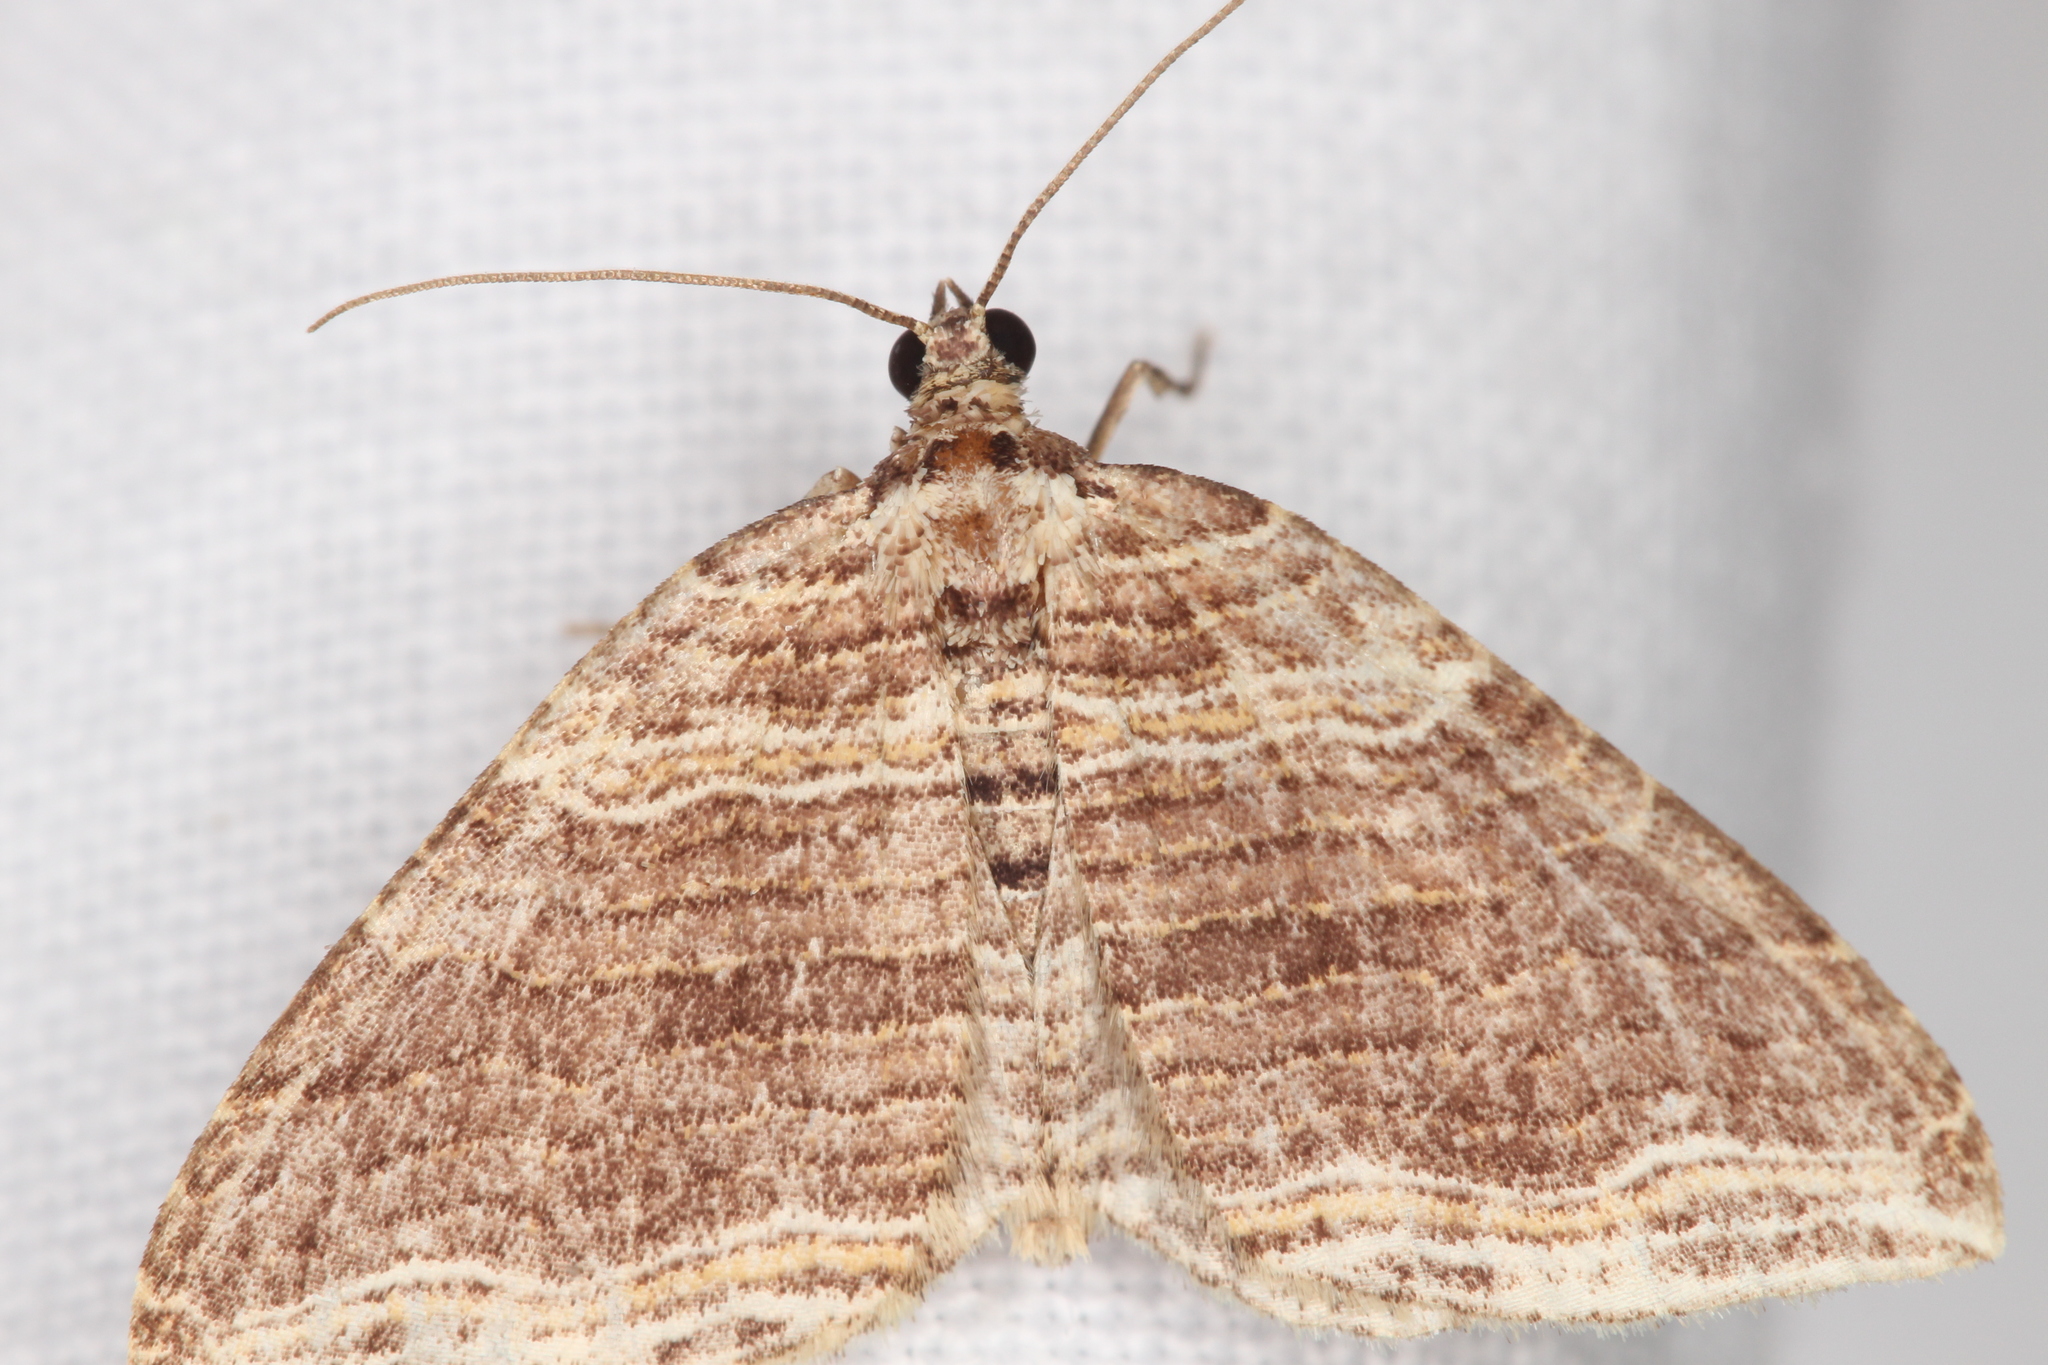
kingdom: Animalia
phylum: Arthropoda
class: Insecta
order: Lepidoptera
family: Geometridae
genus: Anticlea
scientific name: Anticlea multiferata
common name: Many-lined carpet
